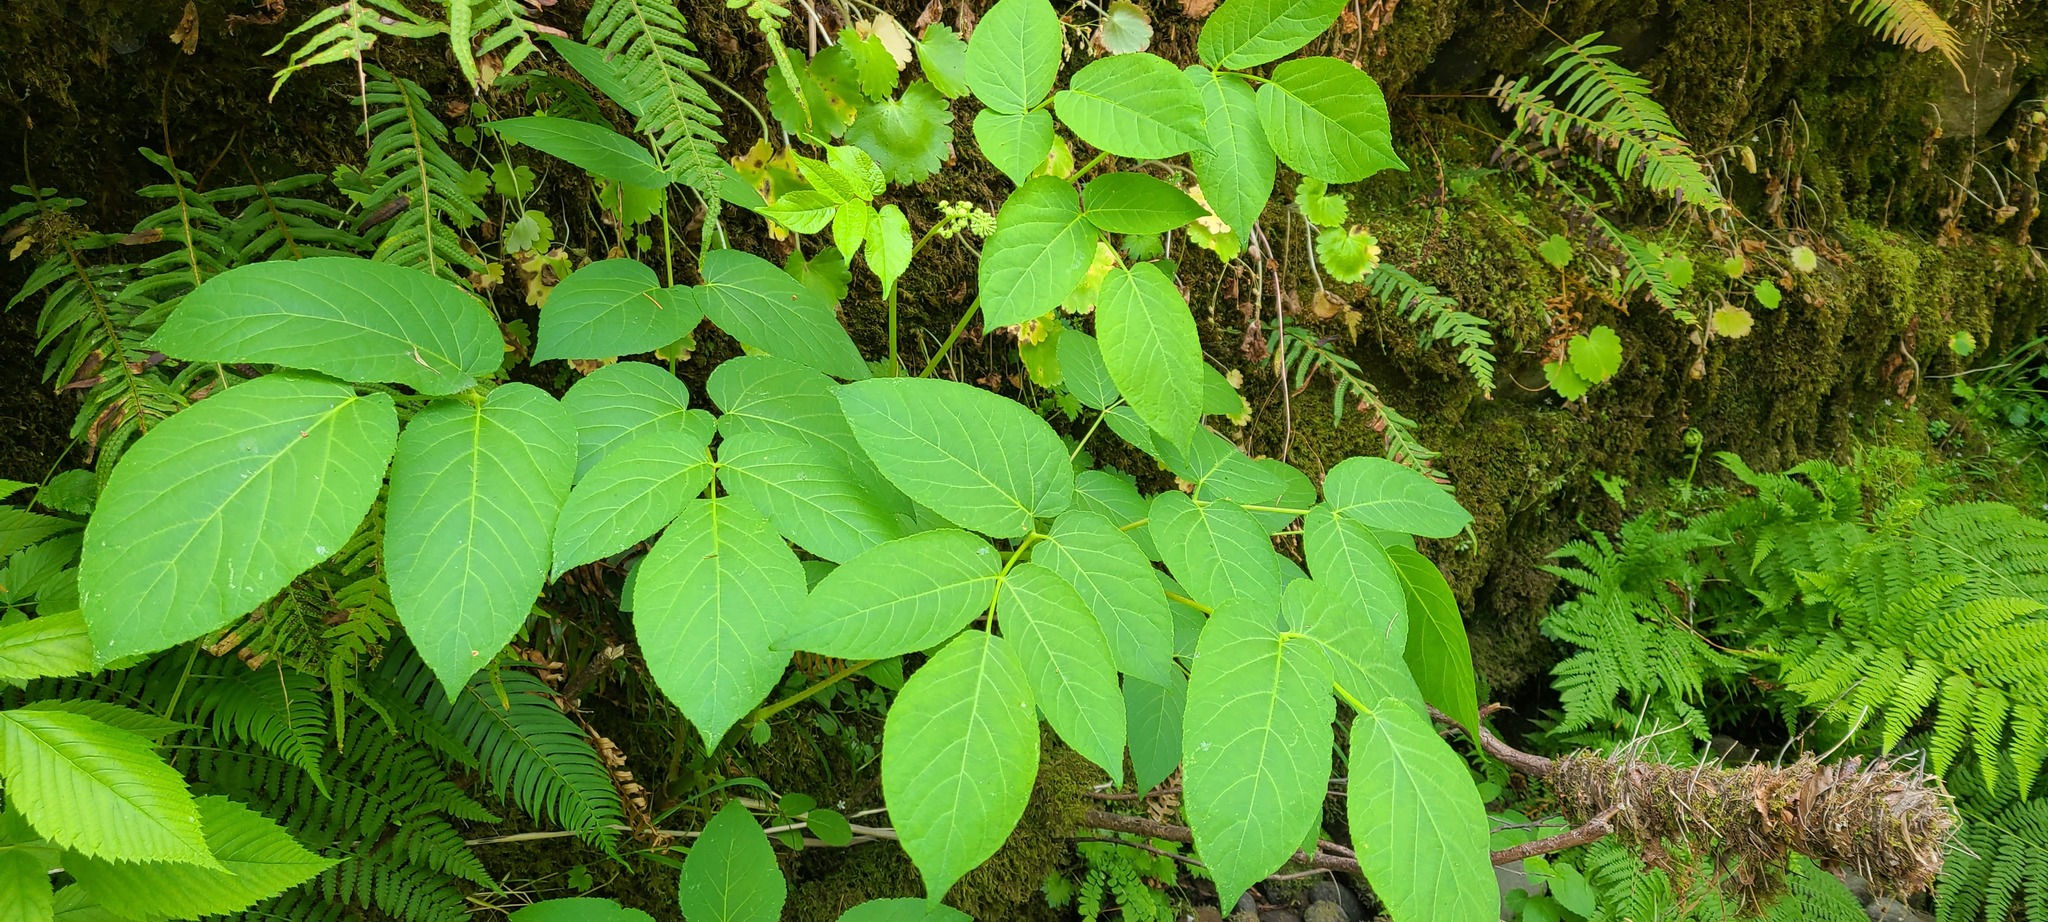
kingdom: Plantae
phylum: Tracheophyta
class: Magnoliopsida
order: Apiales
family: Araliaceae
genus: Aralia
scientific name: Aralia californica
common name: California-ginseng
